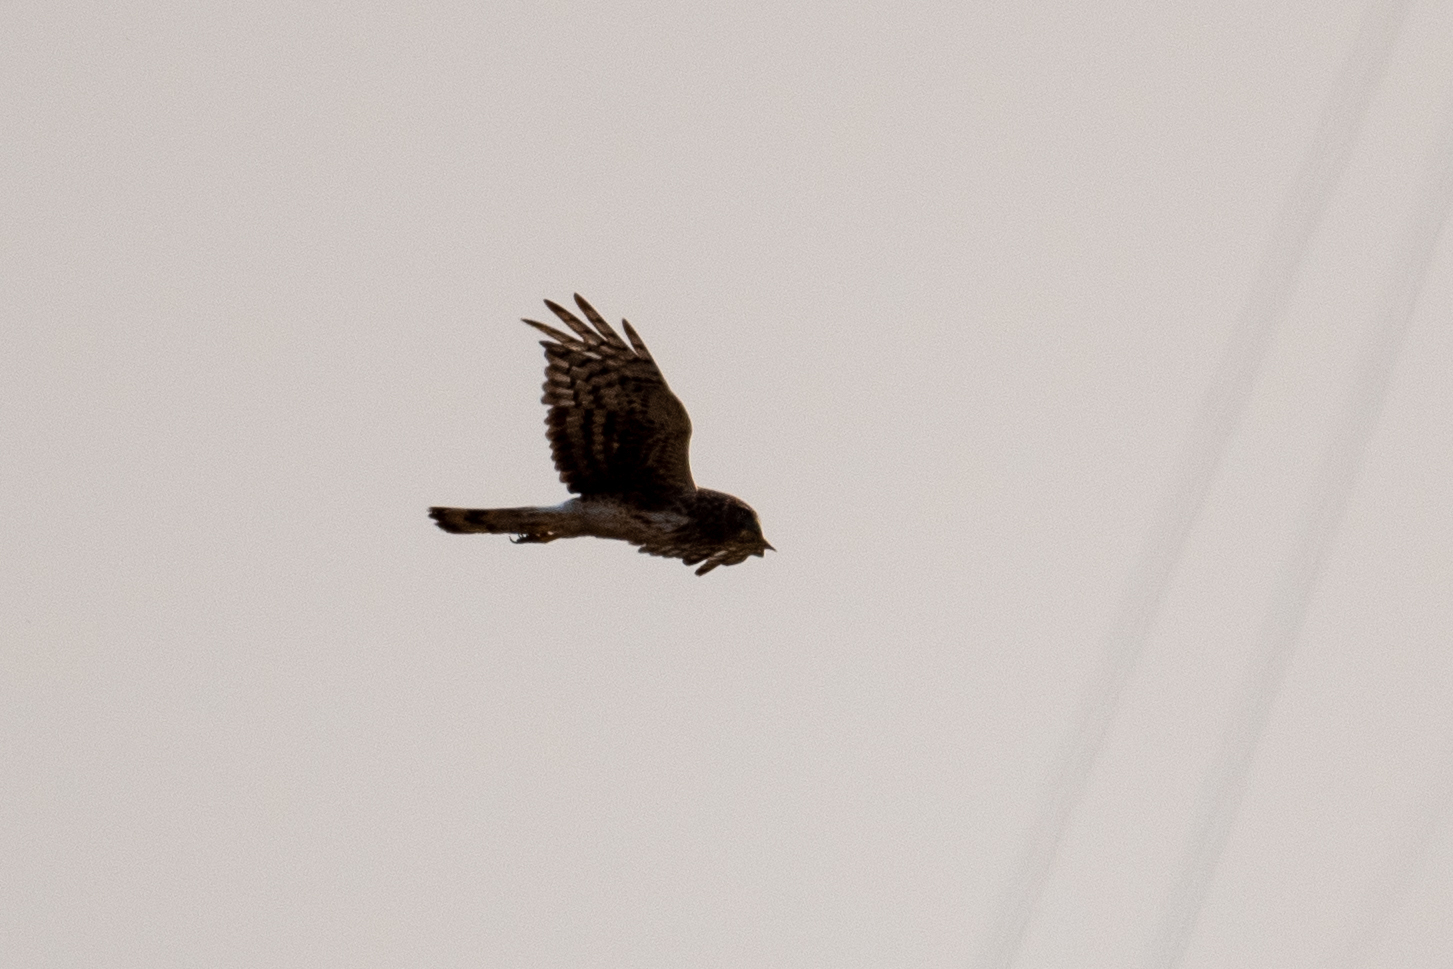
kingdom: Animalia
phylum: Chordata
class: Aves
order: Accipitriformes
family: Accipitridae
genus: Circus
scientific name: Circus cyaneus
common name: Hen harrier
